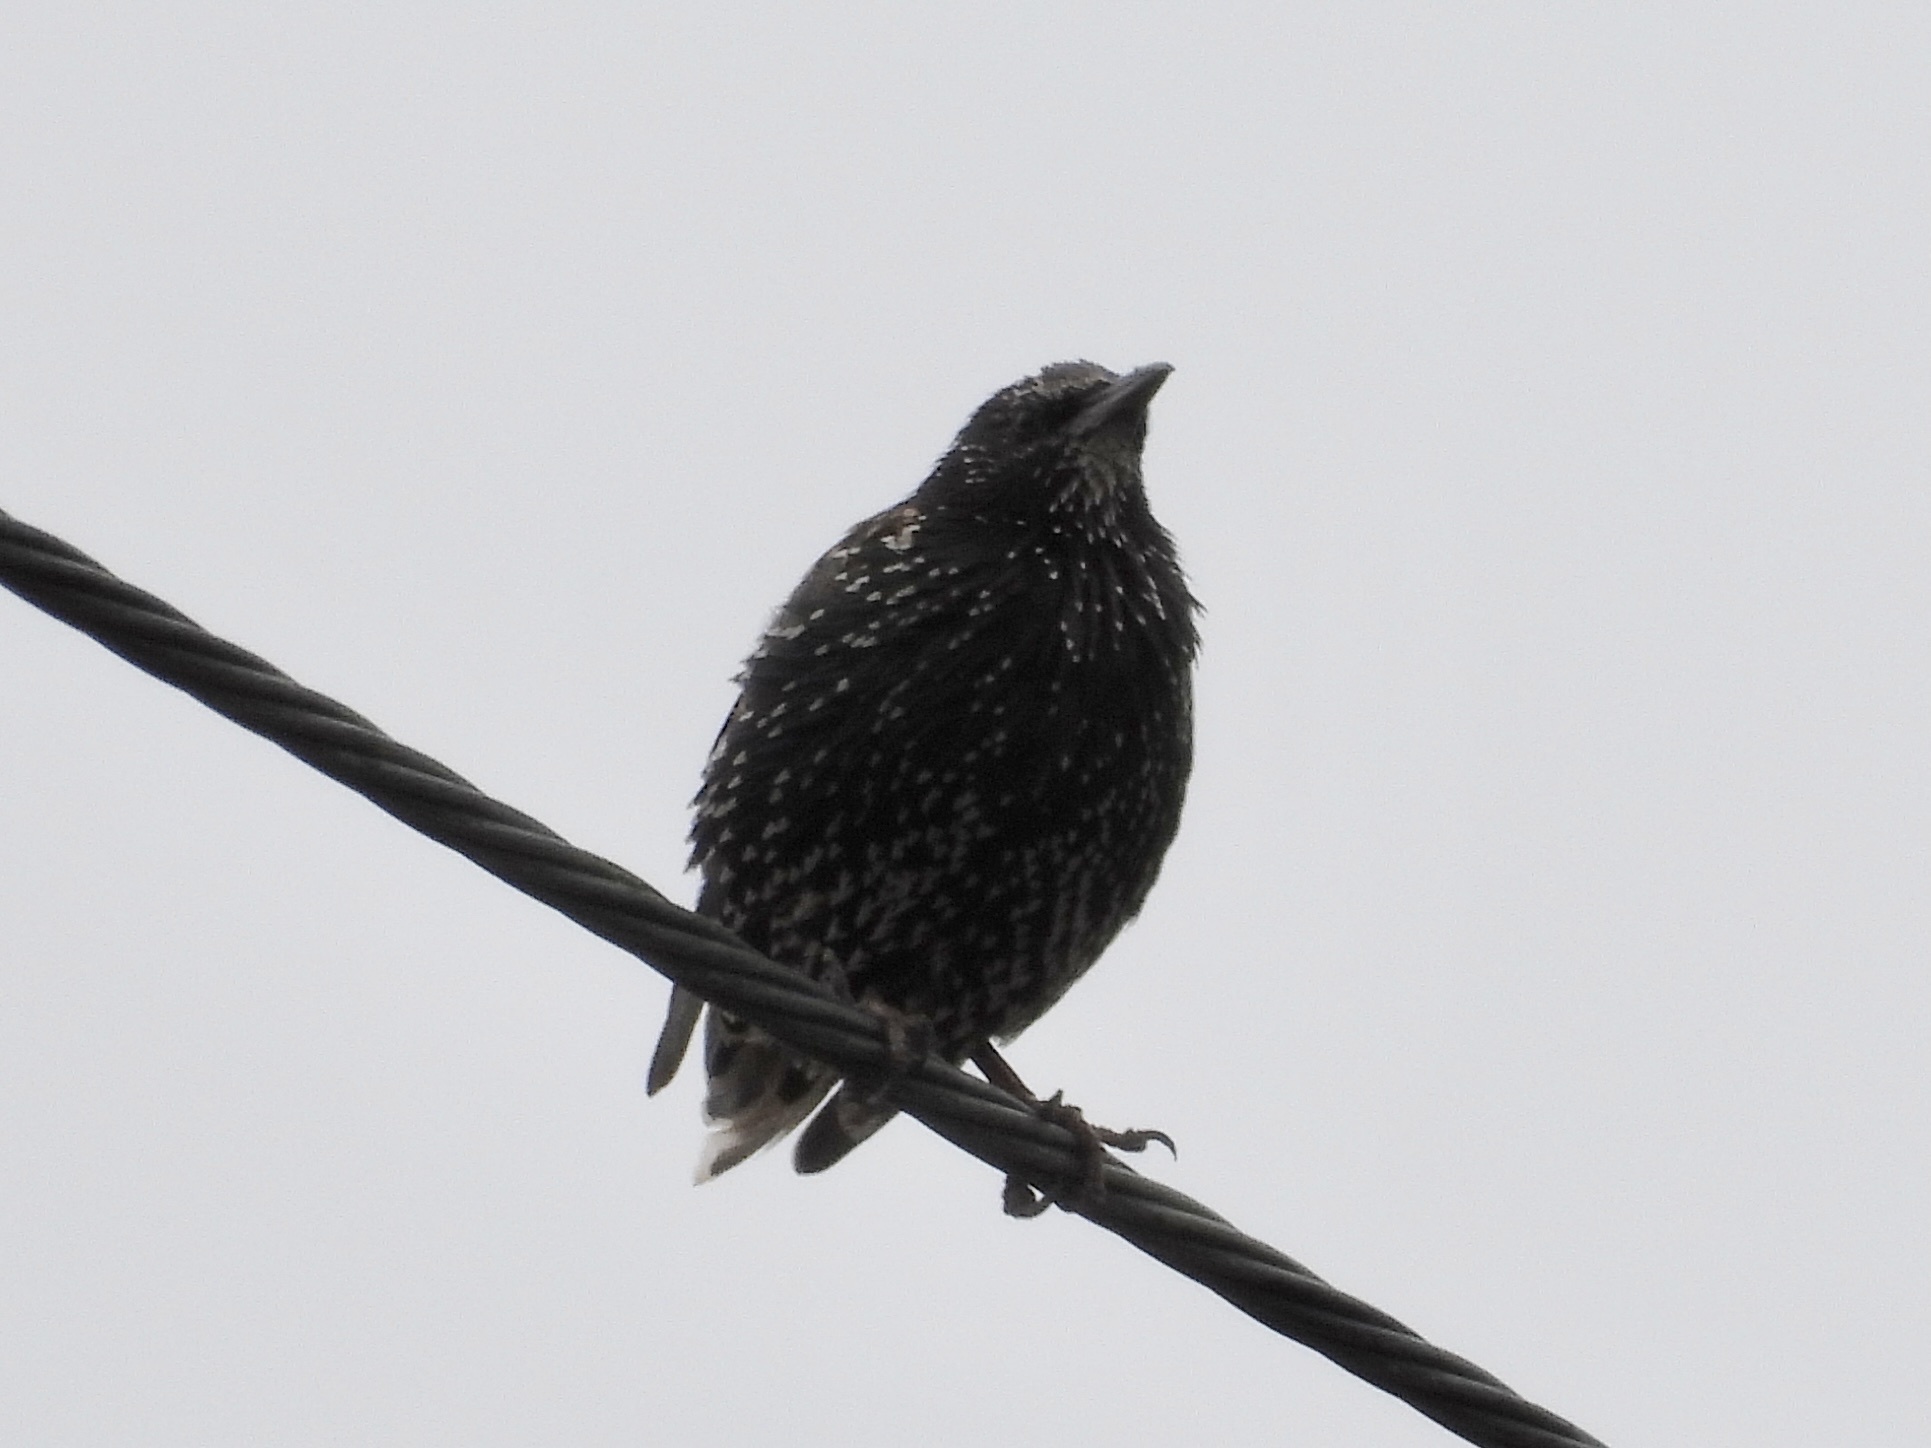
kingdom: Animalia
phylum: Chordata
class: Aves
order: Passeriformes
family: Sturnidae
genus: Sturnus
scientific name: Sturnus vulgaris
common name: Common starling
